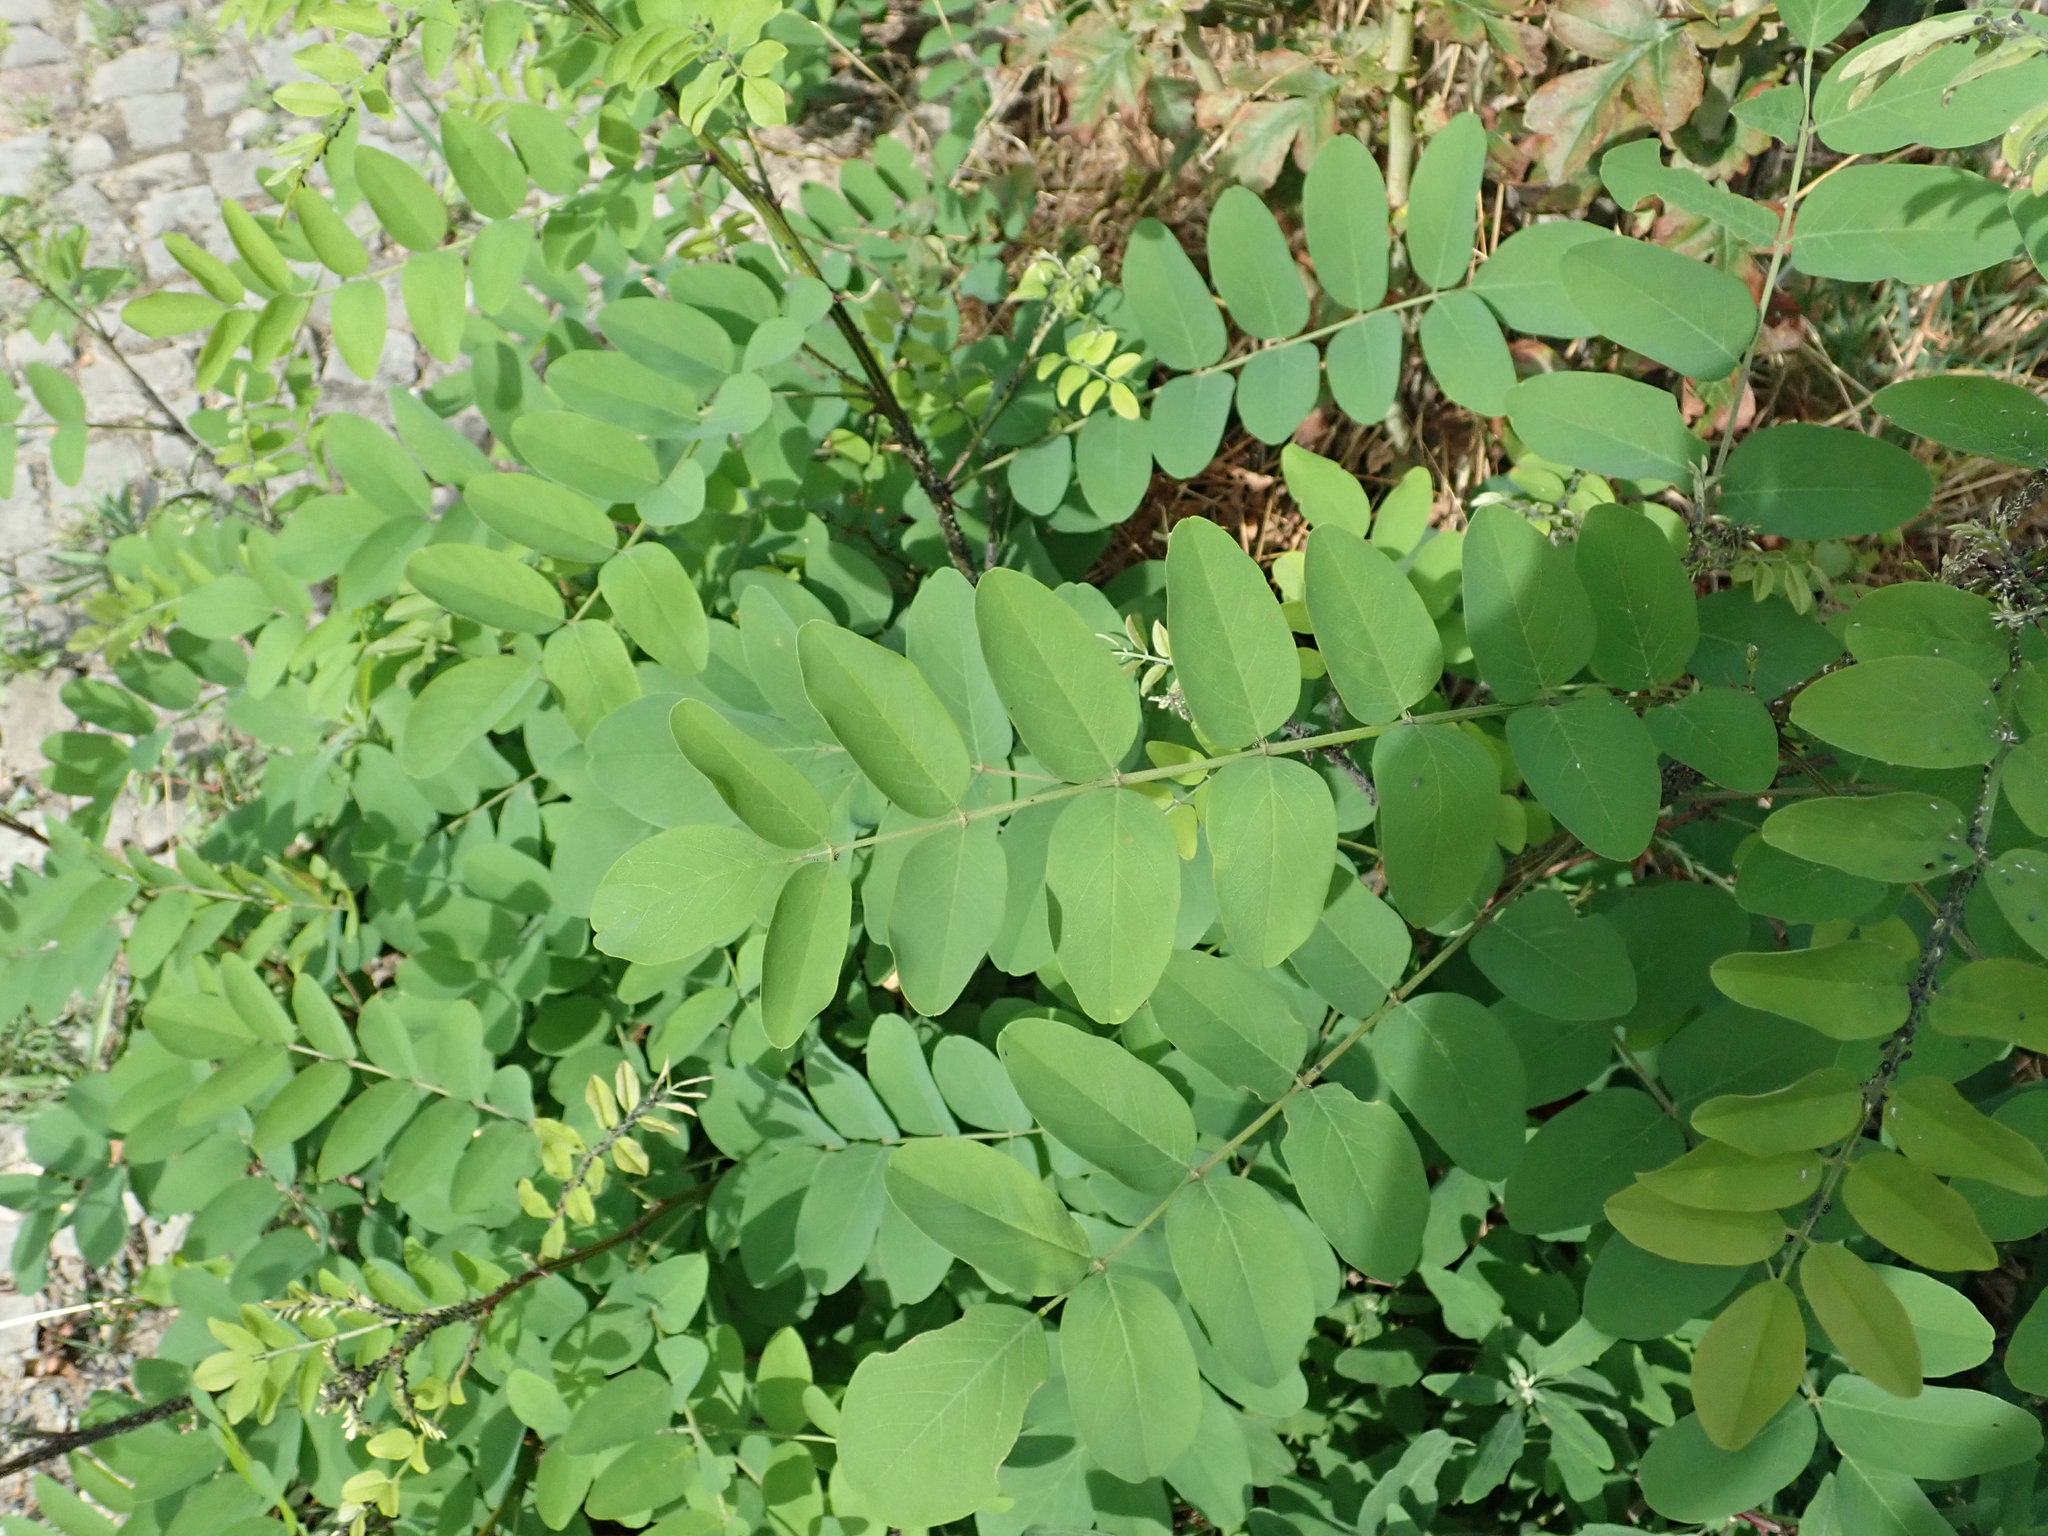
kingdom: Plantae
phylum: Tracheophyta
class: Magnoliopsida
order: Fabales
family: Fabaceae
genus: Robinia
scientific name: Robinia pseudoacacia
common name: Black locust
